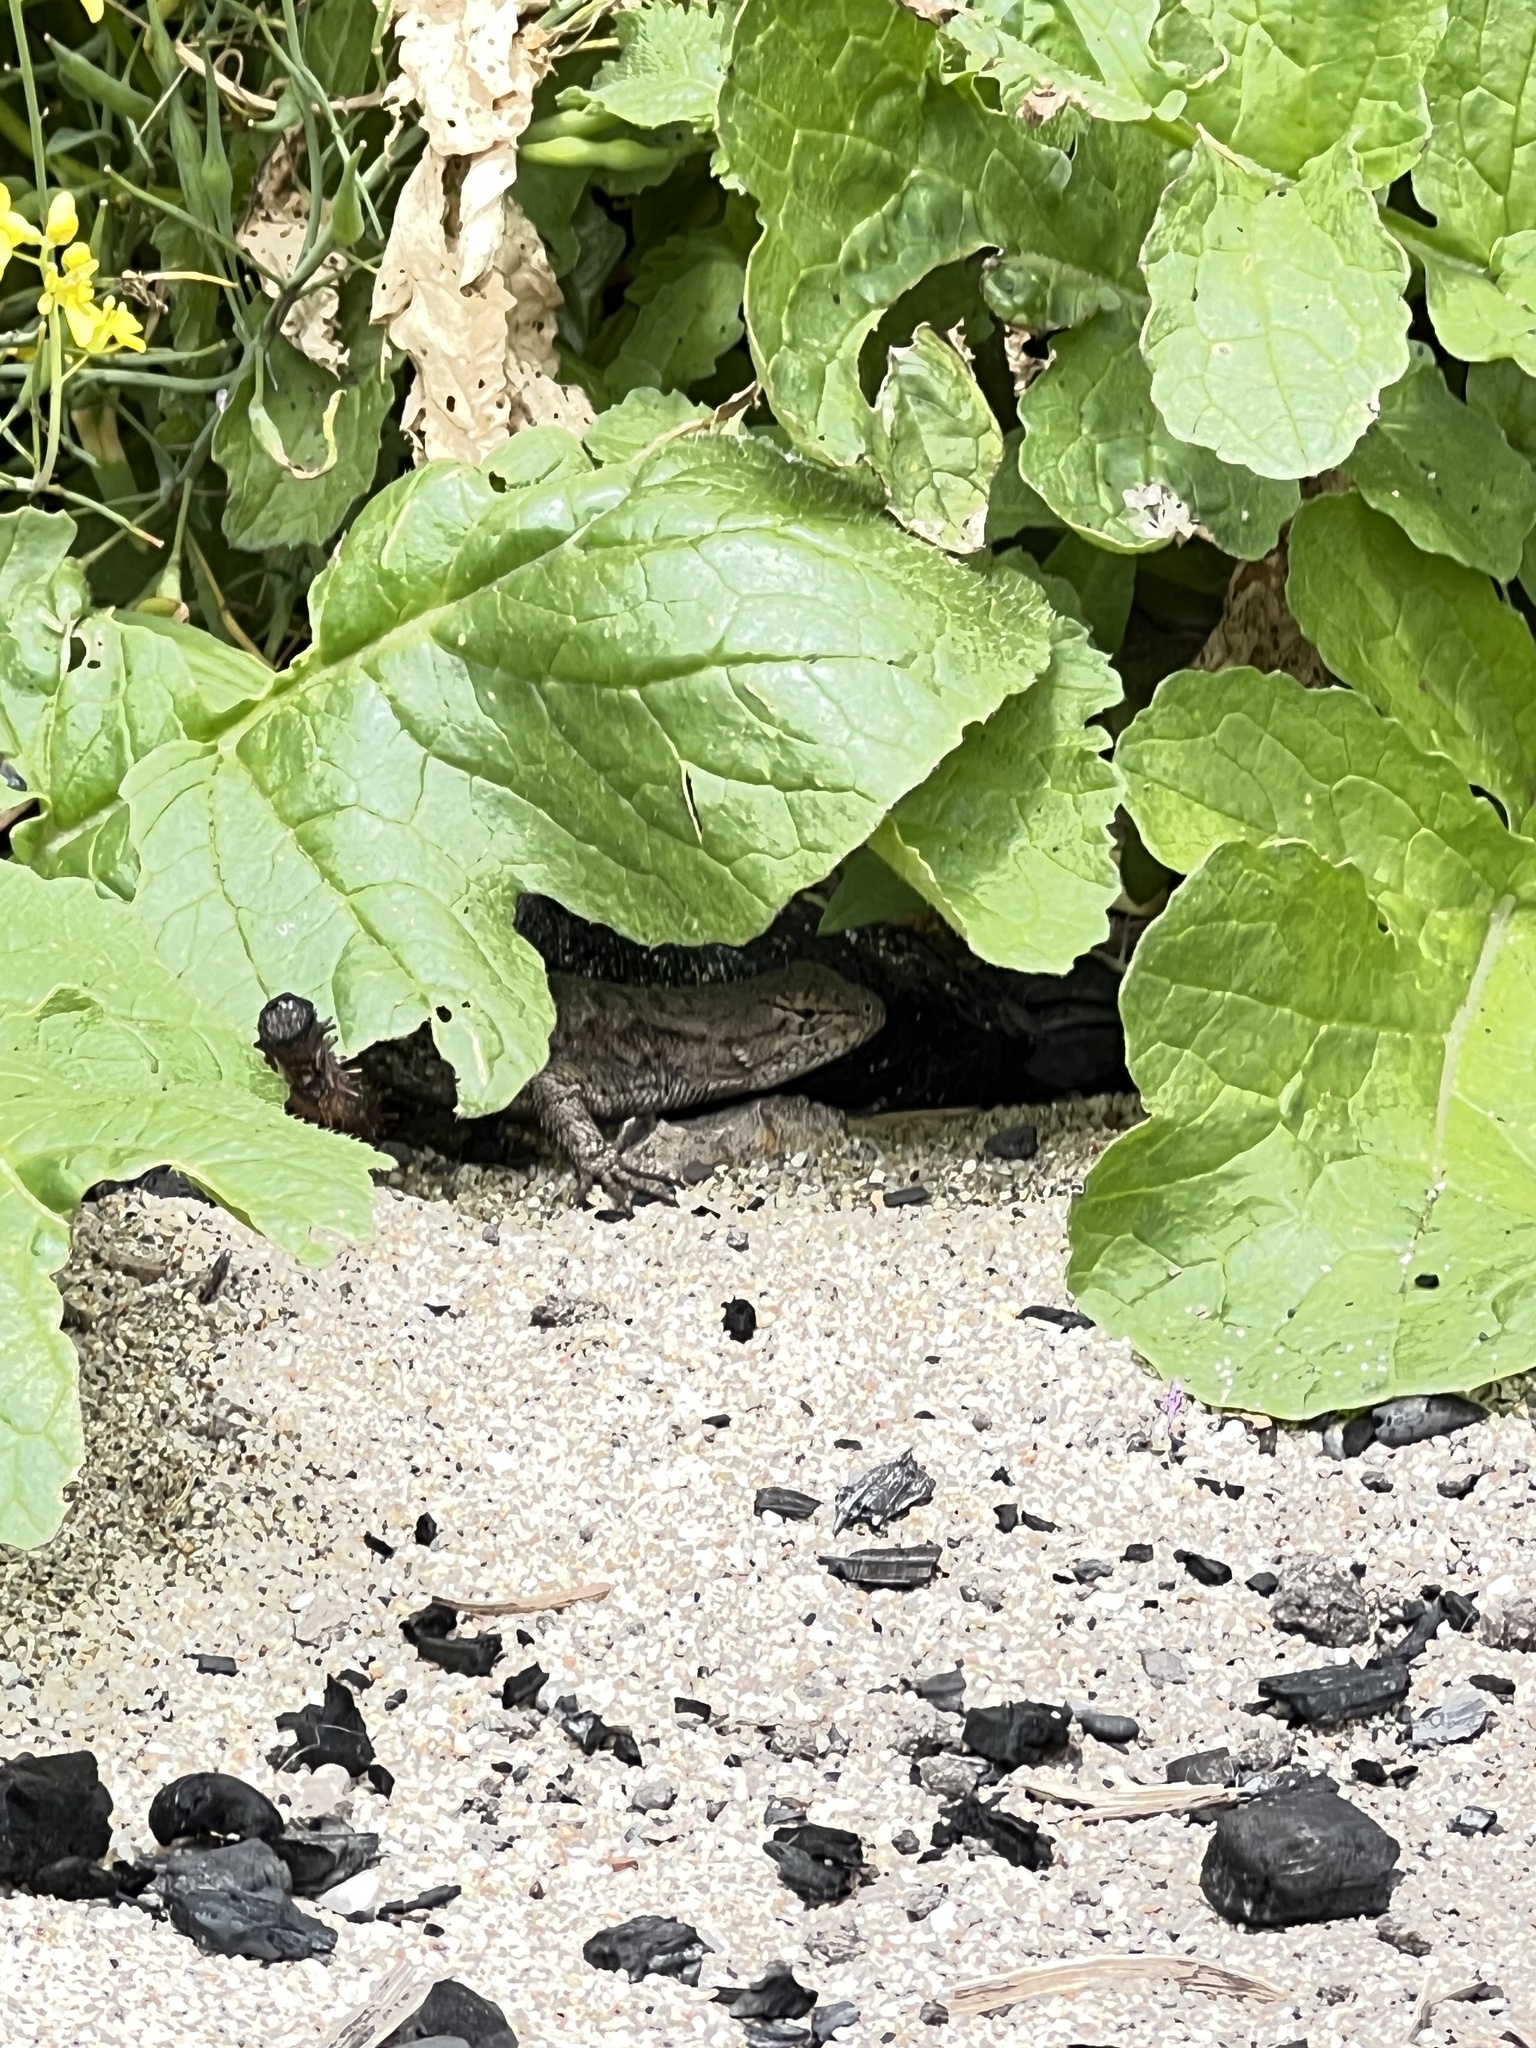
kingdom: Animalia
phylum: Chordata
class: Squamata
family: Phrynosomatidae
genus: Sceloporus
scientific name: Sceloporus occidentalis
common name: Western fence lizard
